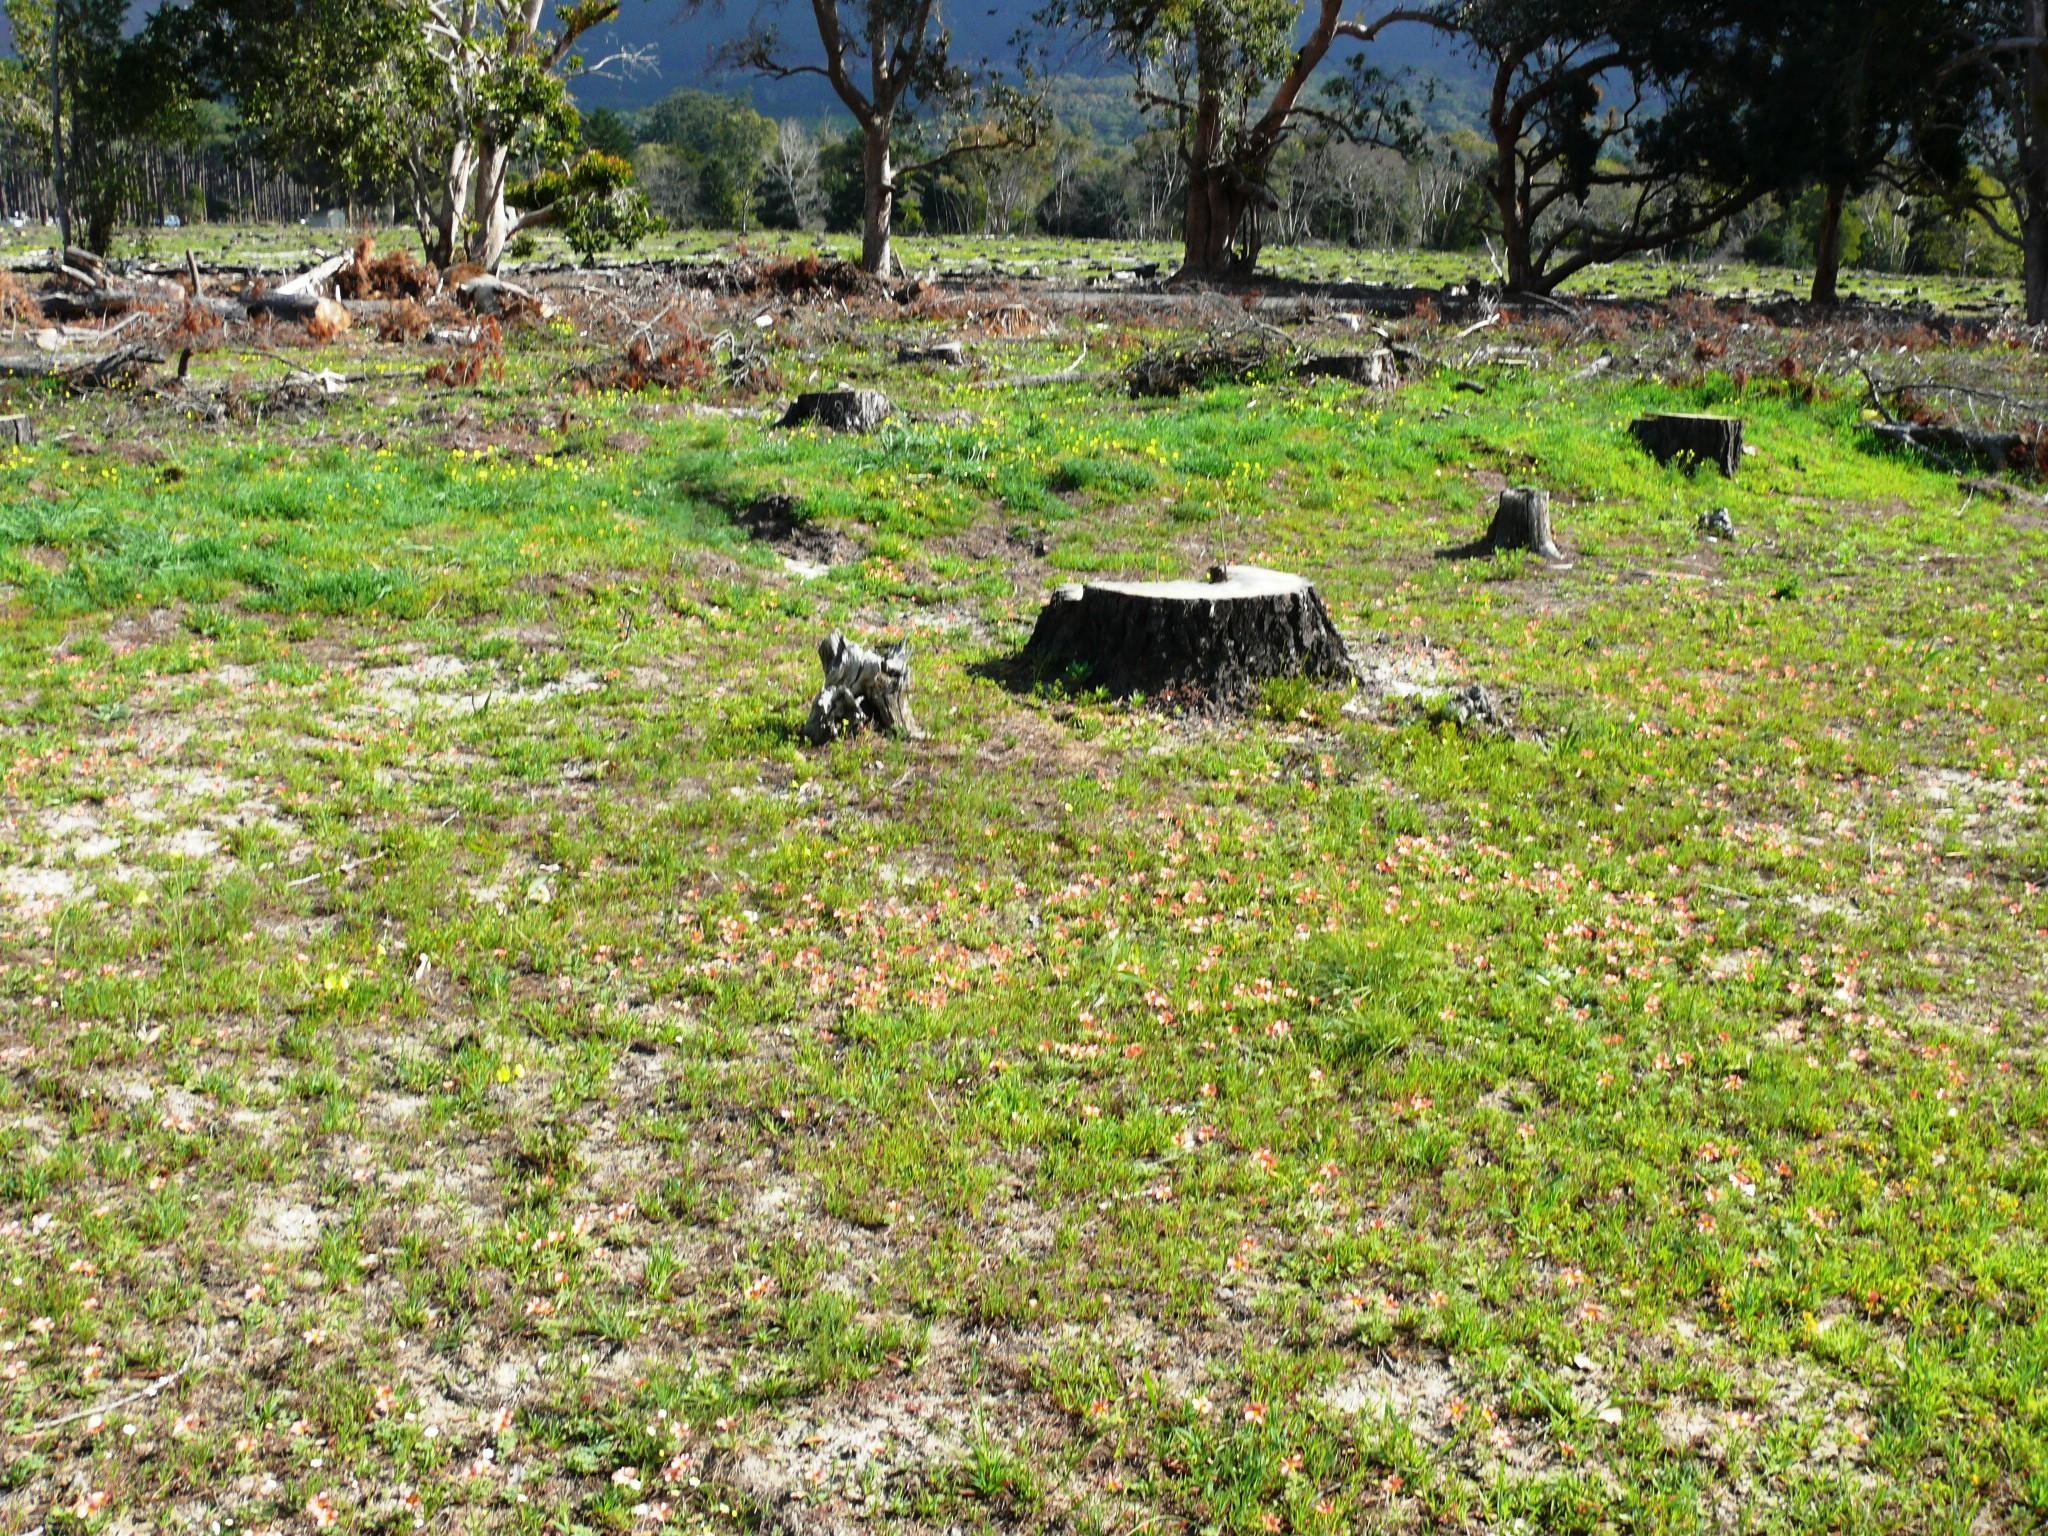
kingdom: Plantae
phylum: Tracheophyta
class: Magnoliopsida
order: Oxalidales
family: Oxalidaceae
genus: Oxalis
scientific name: Oxalis obtusa
